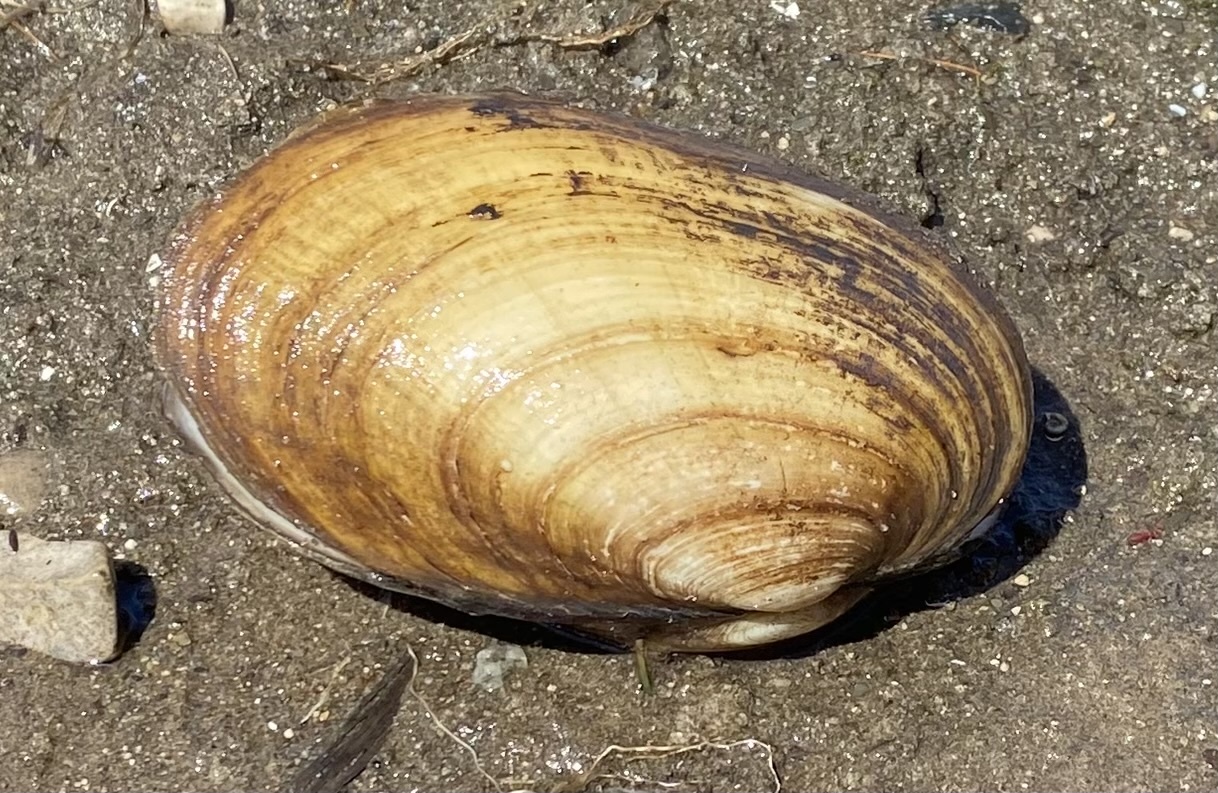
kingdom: Animalia
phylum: Mollusca
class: Bivalvia
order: Unionida
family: Unionidae
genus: Lampsilis
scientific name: Lampsilis siliquoidea
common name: Fatmucket
